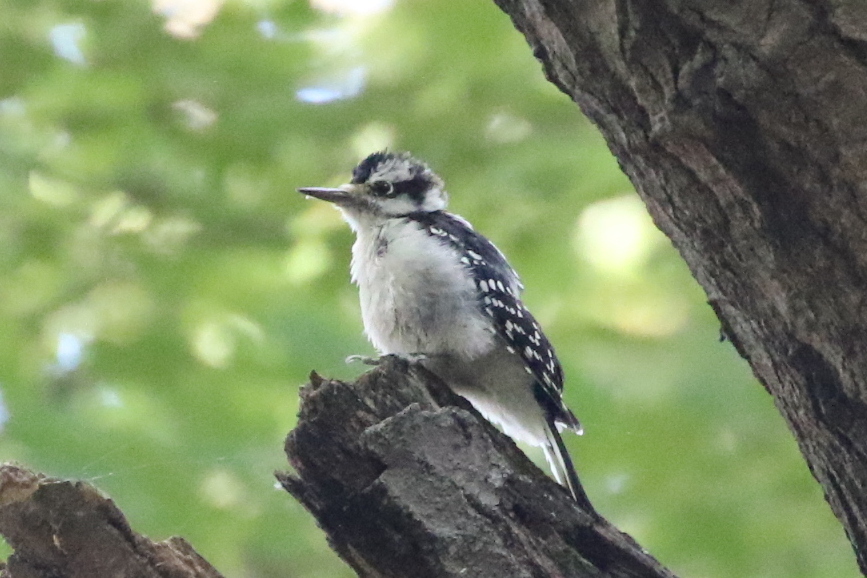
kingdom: Animalia
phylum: Chordata
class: Aves
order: Piciformes
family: Picidae
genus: Leuconotopicus
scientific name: Leuconotopicus villosus
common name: Hairy woodpecker
